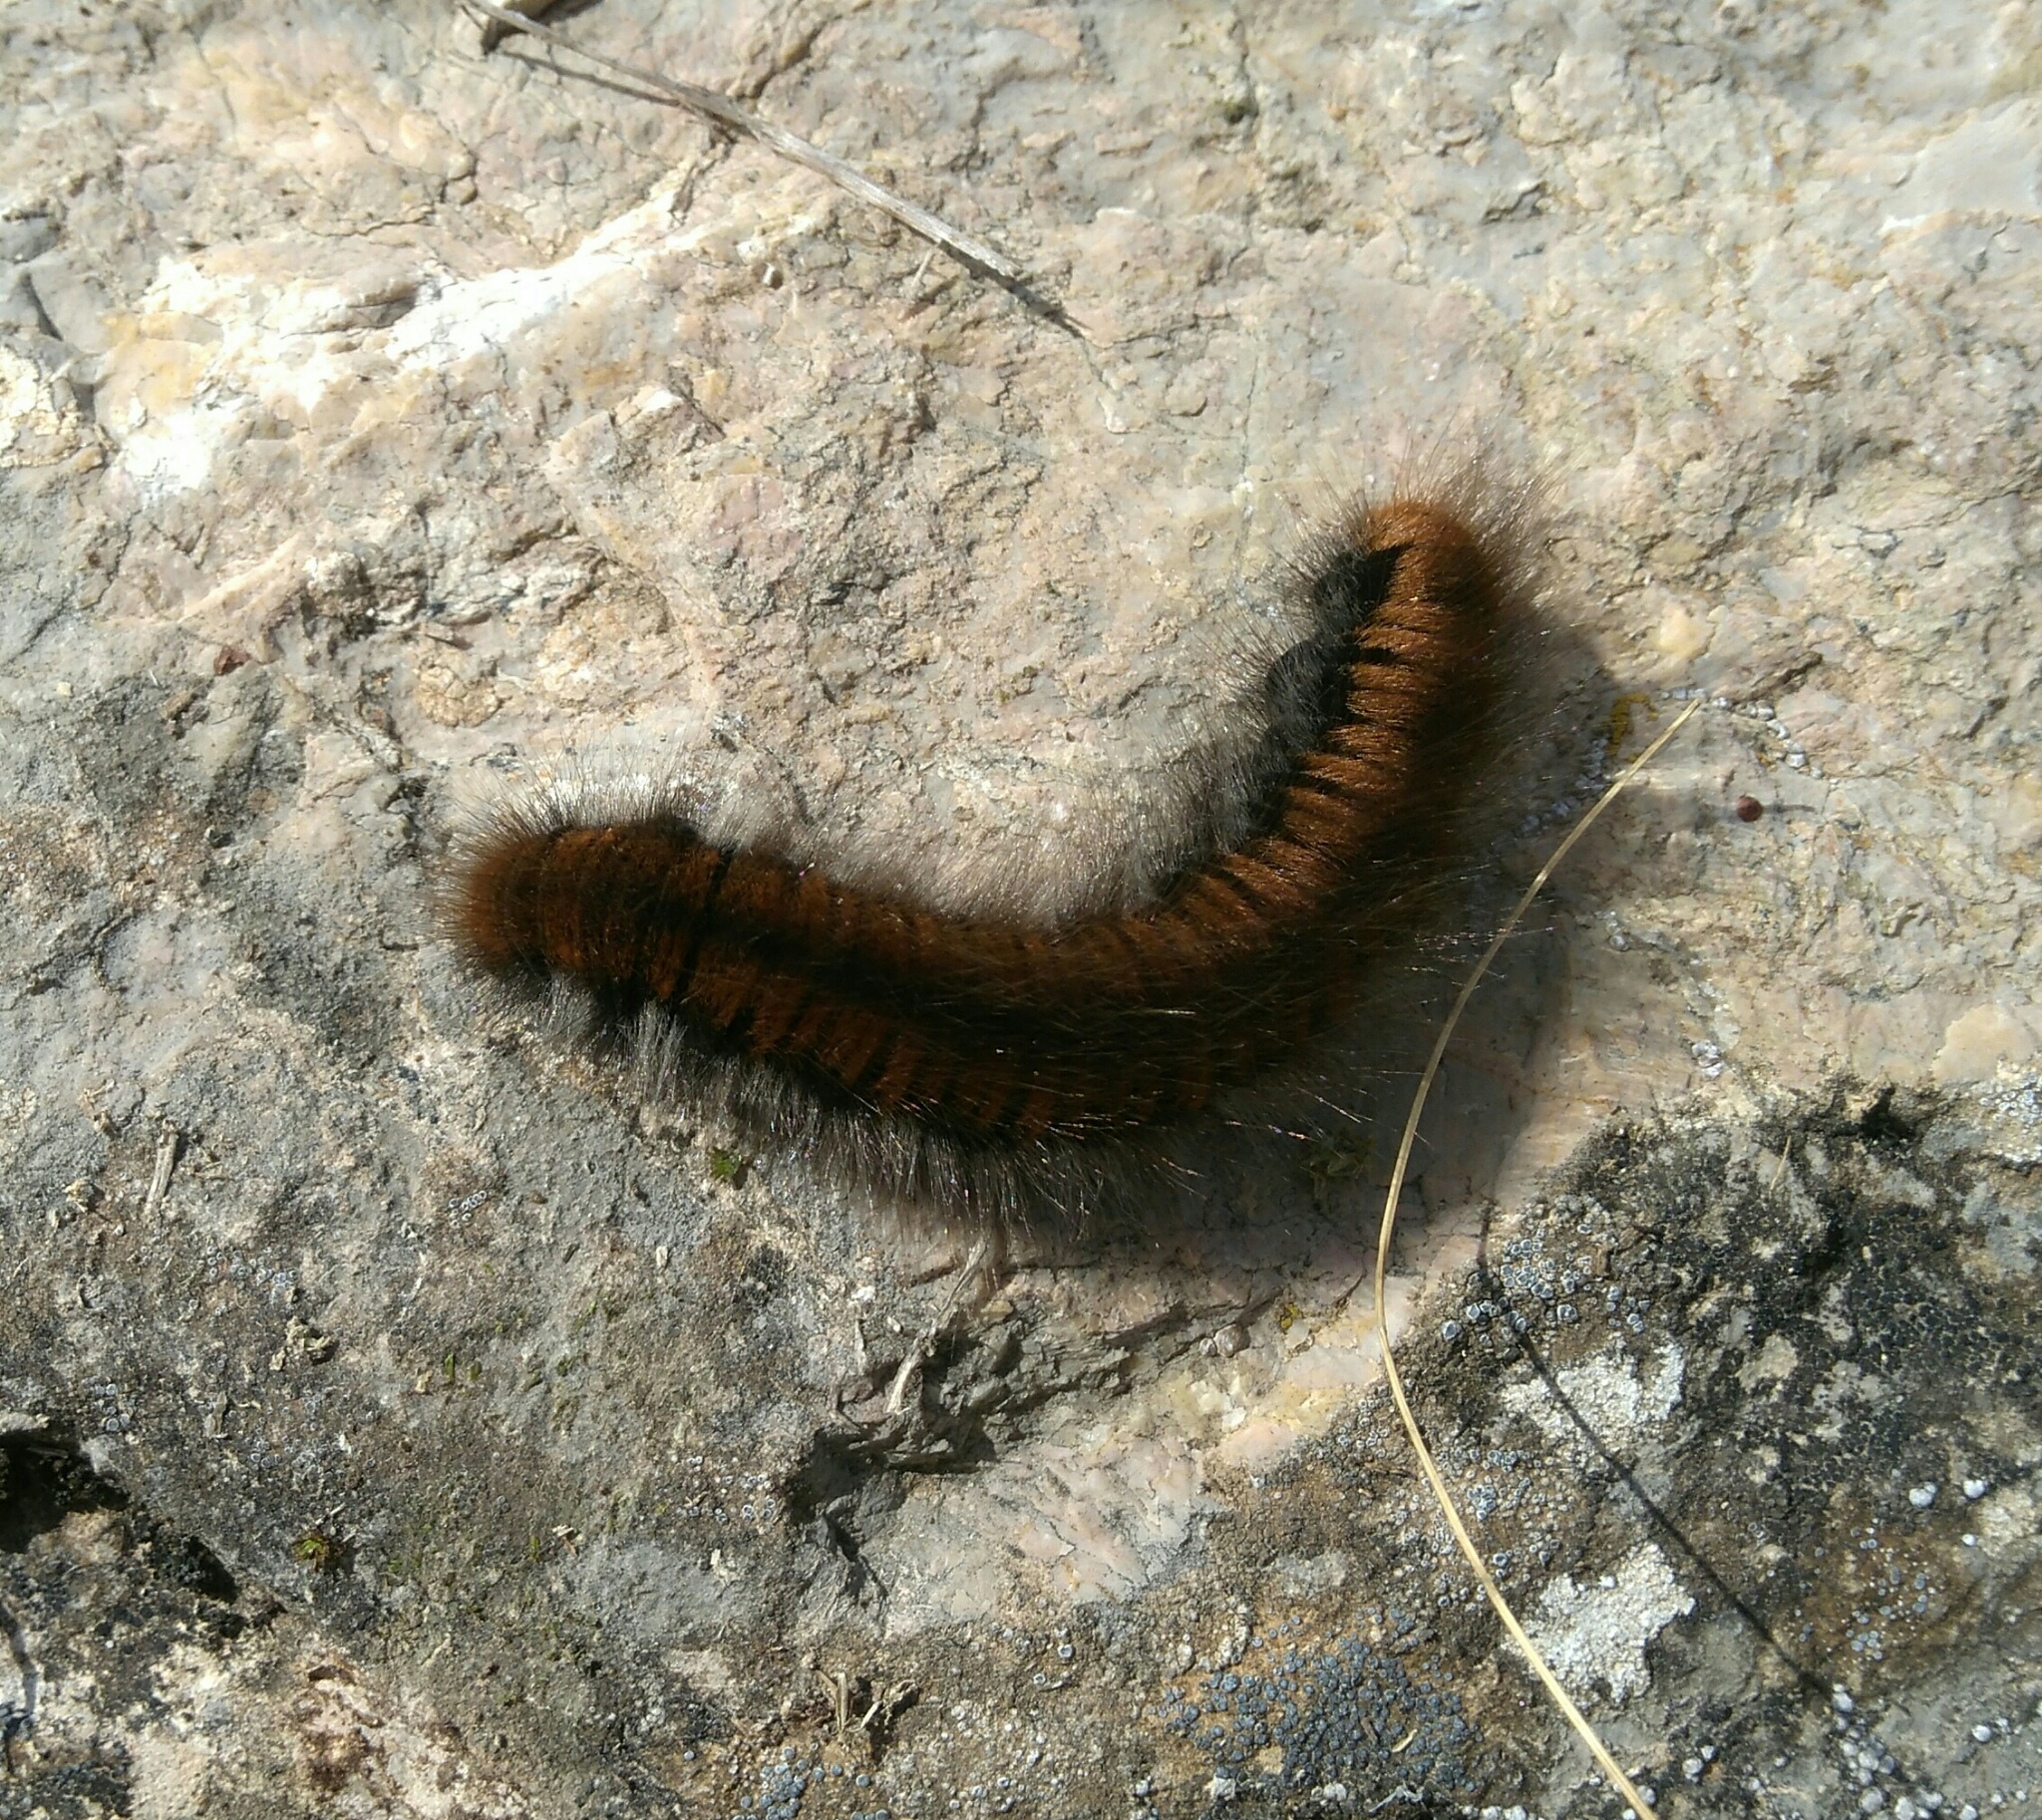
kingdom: Animalia
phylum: Arthropoda
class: Insecta
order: Lepidoptera
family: Lasiocampidae
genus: Macrothylacia
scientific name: Macrothylacia rubi
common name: Fox moth
